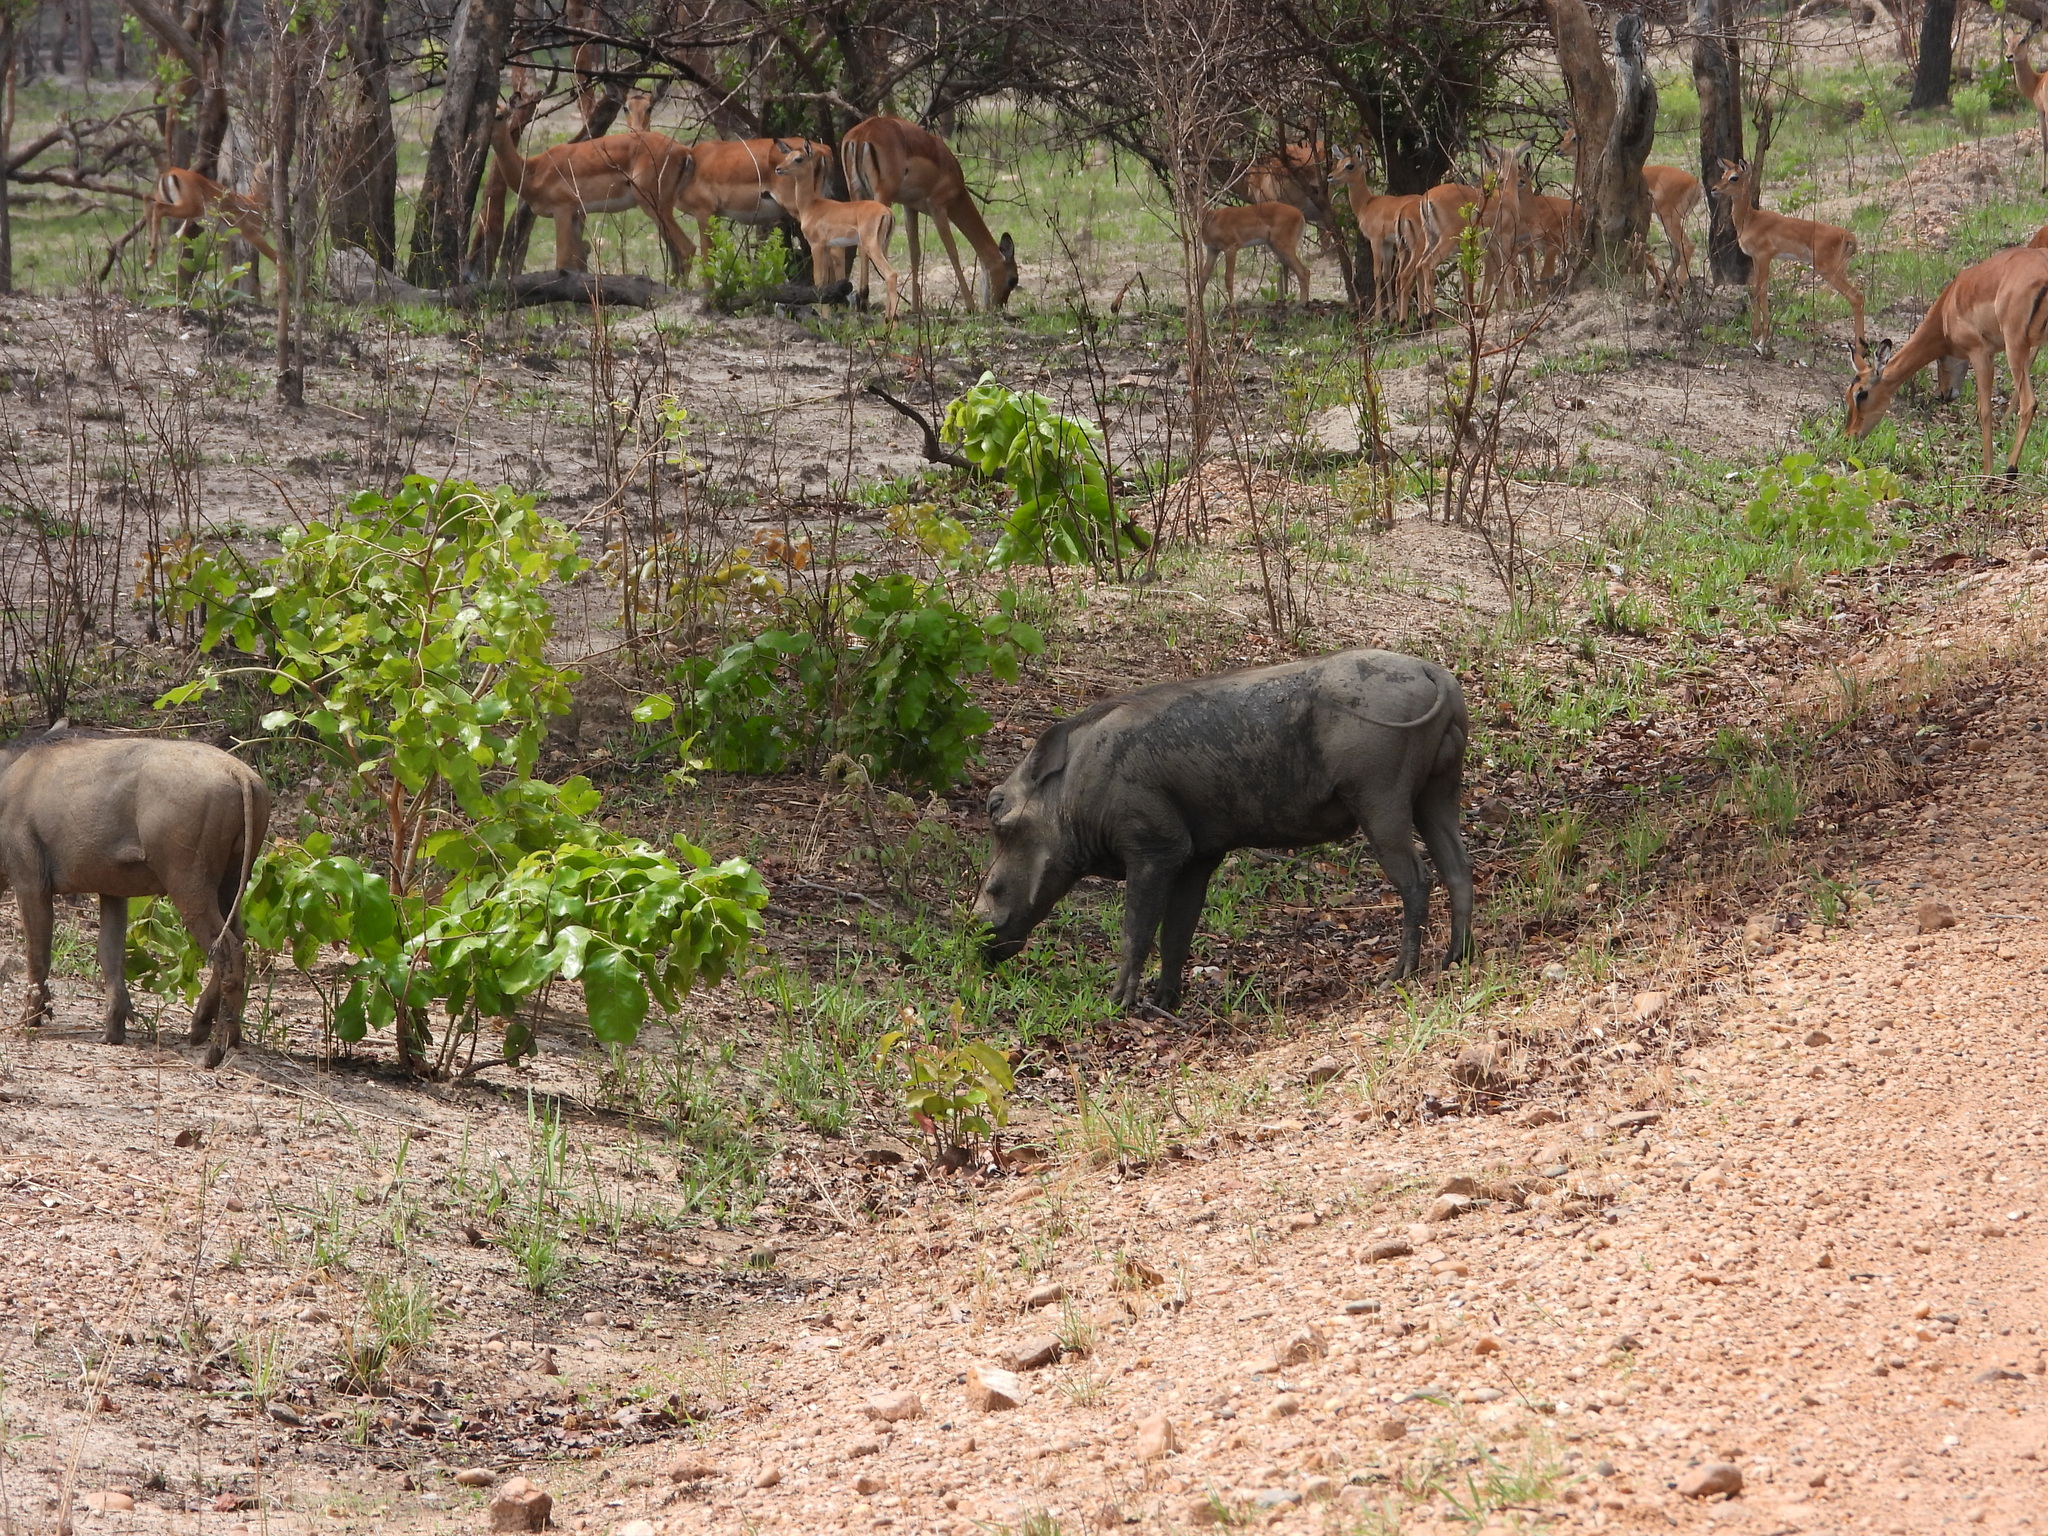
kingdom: Animalia
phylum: Chordata
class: Mammalia
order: Artiodactyla
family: Suidae
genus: Phacochoerus
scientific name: Phacochoerus africanus
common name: Common warthog
